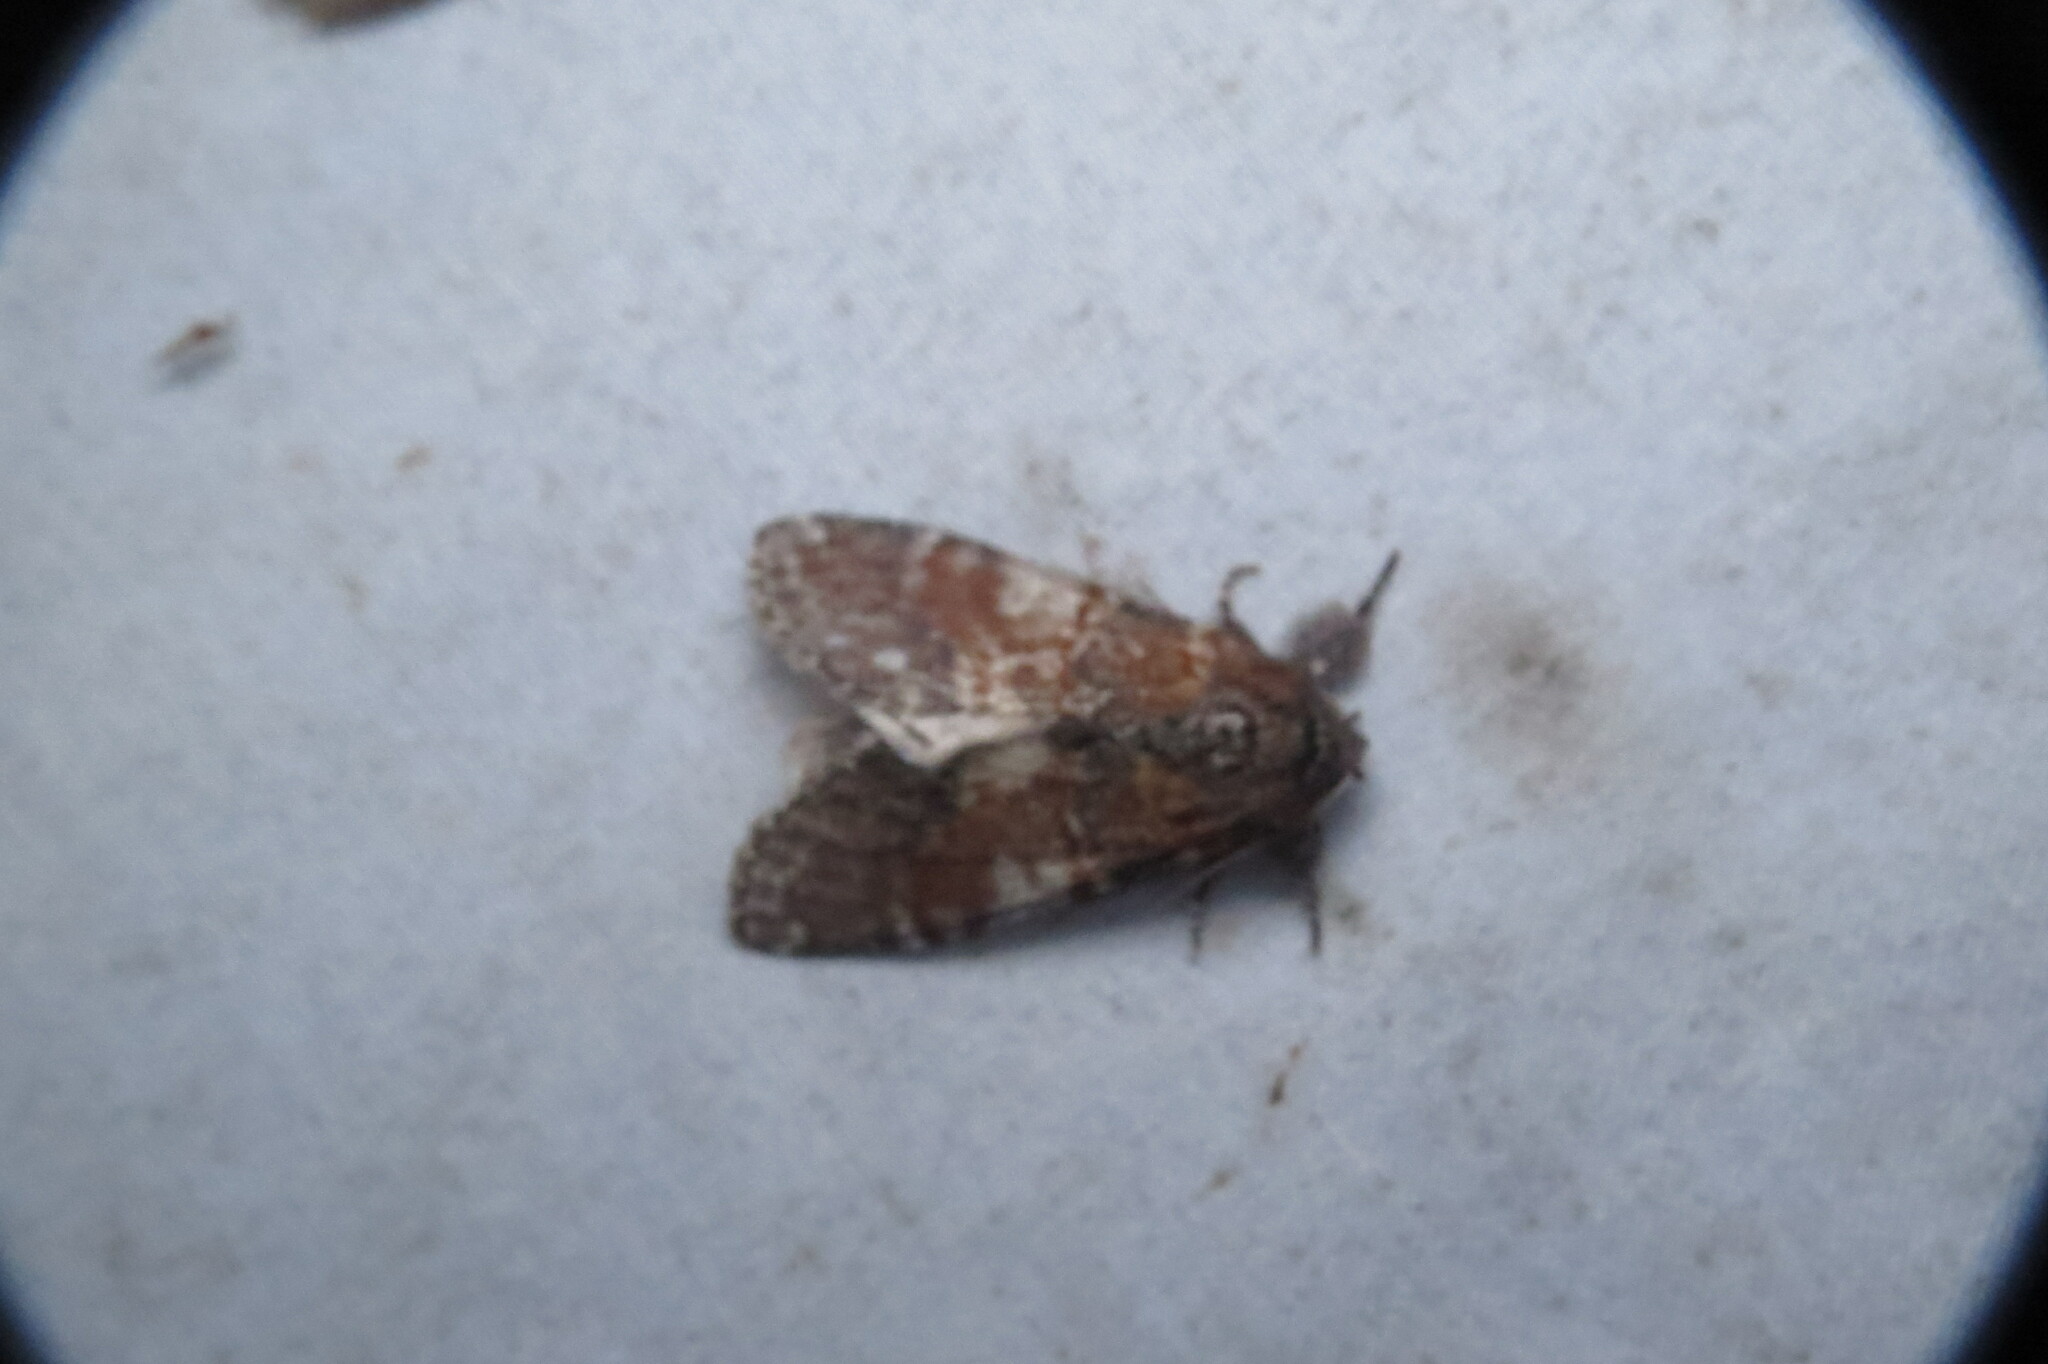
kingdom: Animalia
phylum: Arthropoda
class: Insecta
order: Lepidoptera
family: Notodontidae
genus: Peridea
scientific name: Peridea ferruginea
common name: Chocolate prominent
